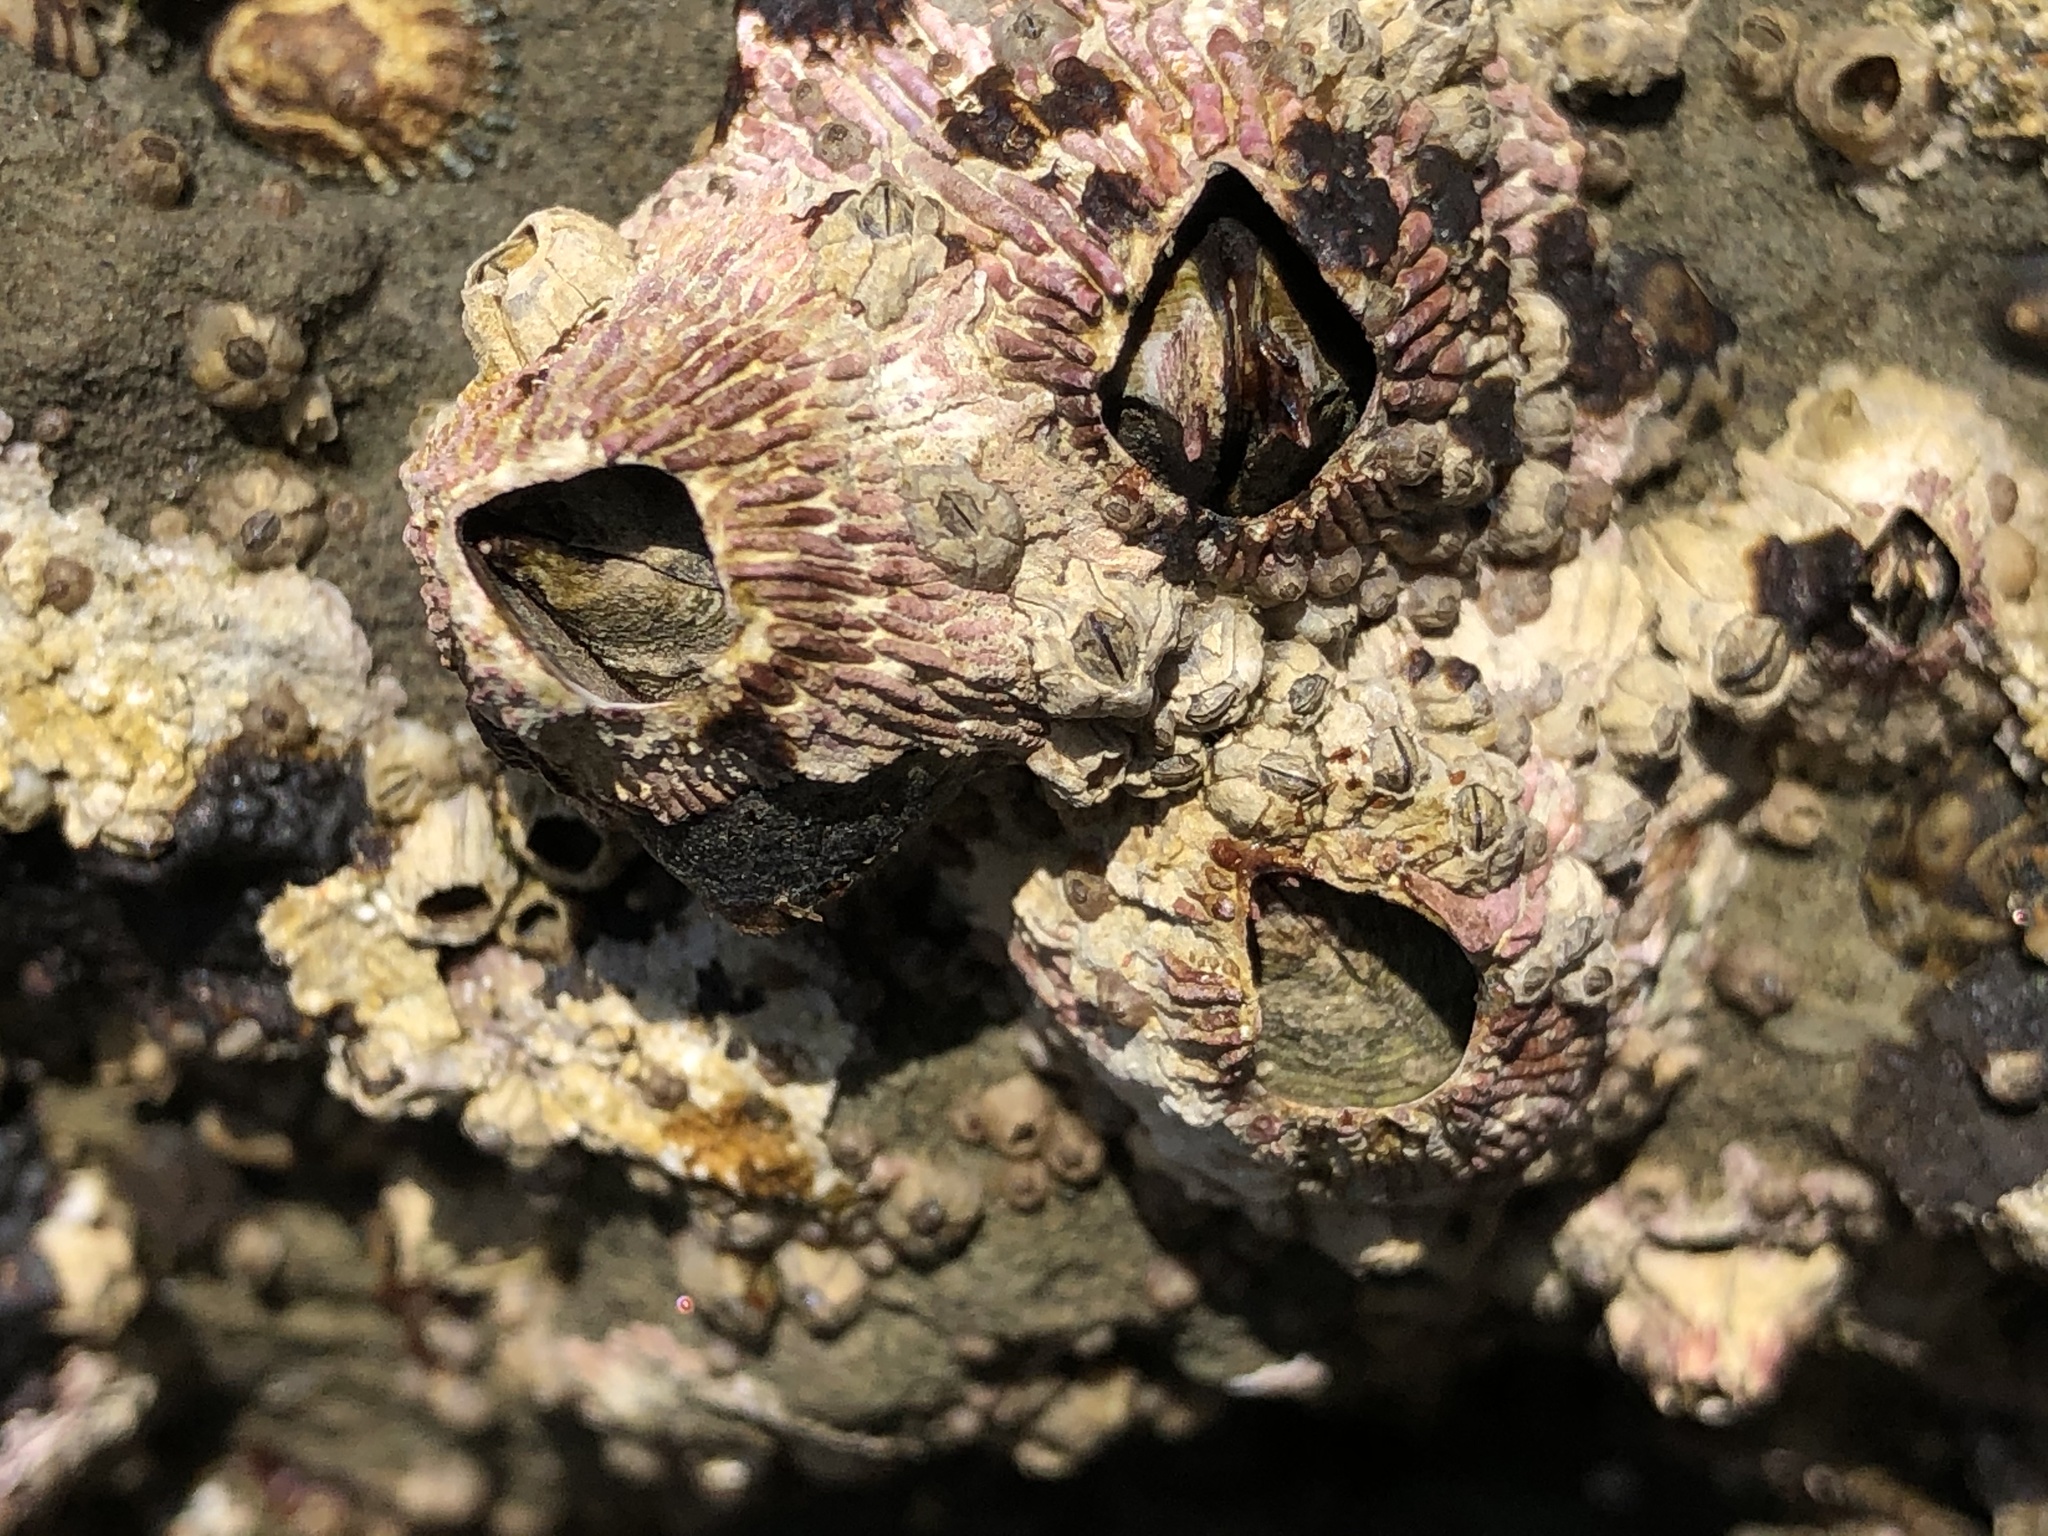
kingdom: Animalia
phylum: Arthropoda
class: Maxillopoda
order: Sessilia
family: Tetraclitidae
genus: Tetraclita
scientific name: Tetraclita rubescens
